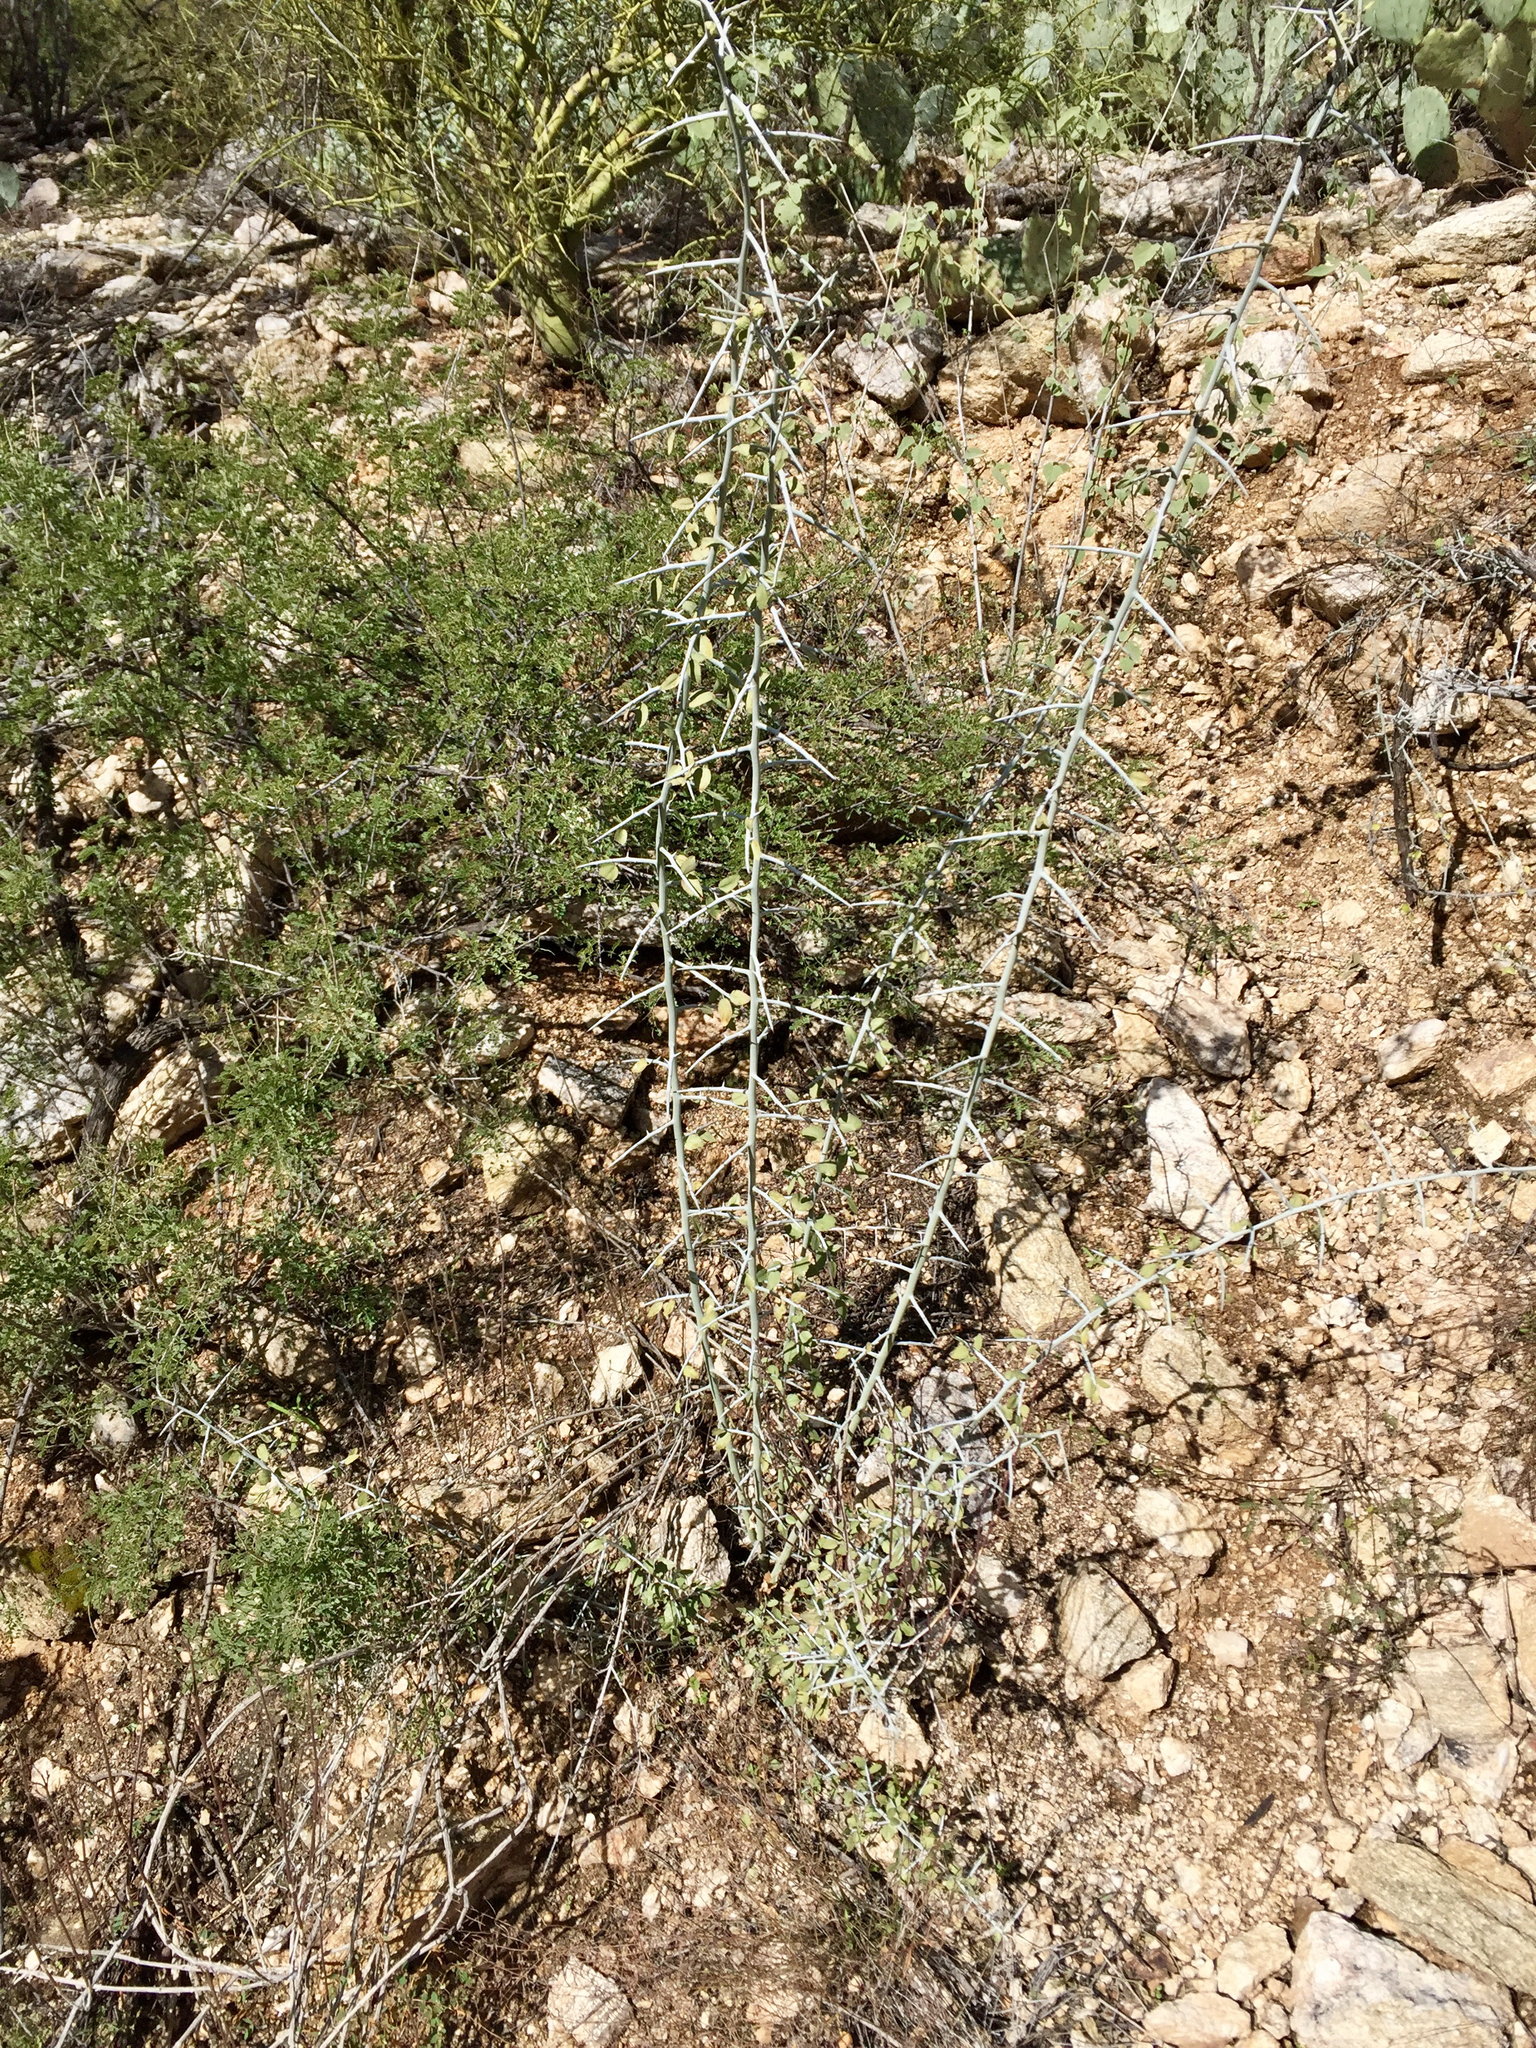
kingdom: Plantae
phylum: Tracheophyta
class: Magnoliopsida
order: Rosales
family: Rhamnaceae
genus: Sarcomphalus
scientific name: Sarcomphalus obtusifolius
